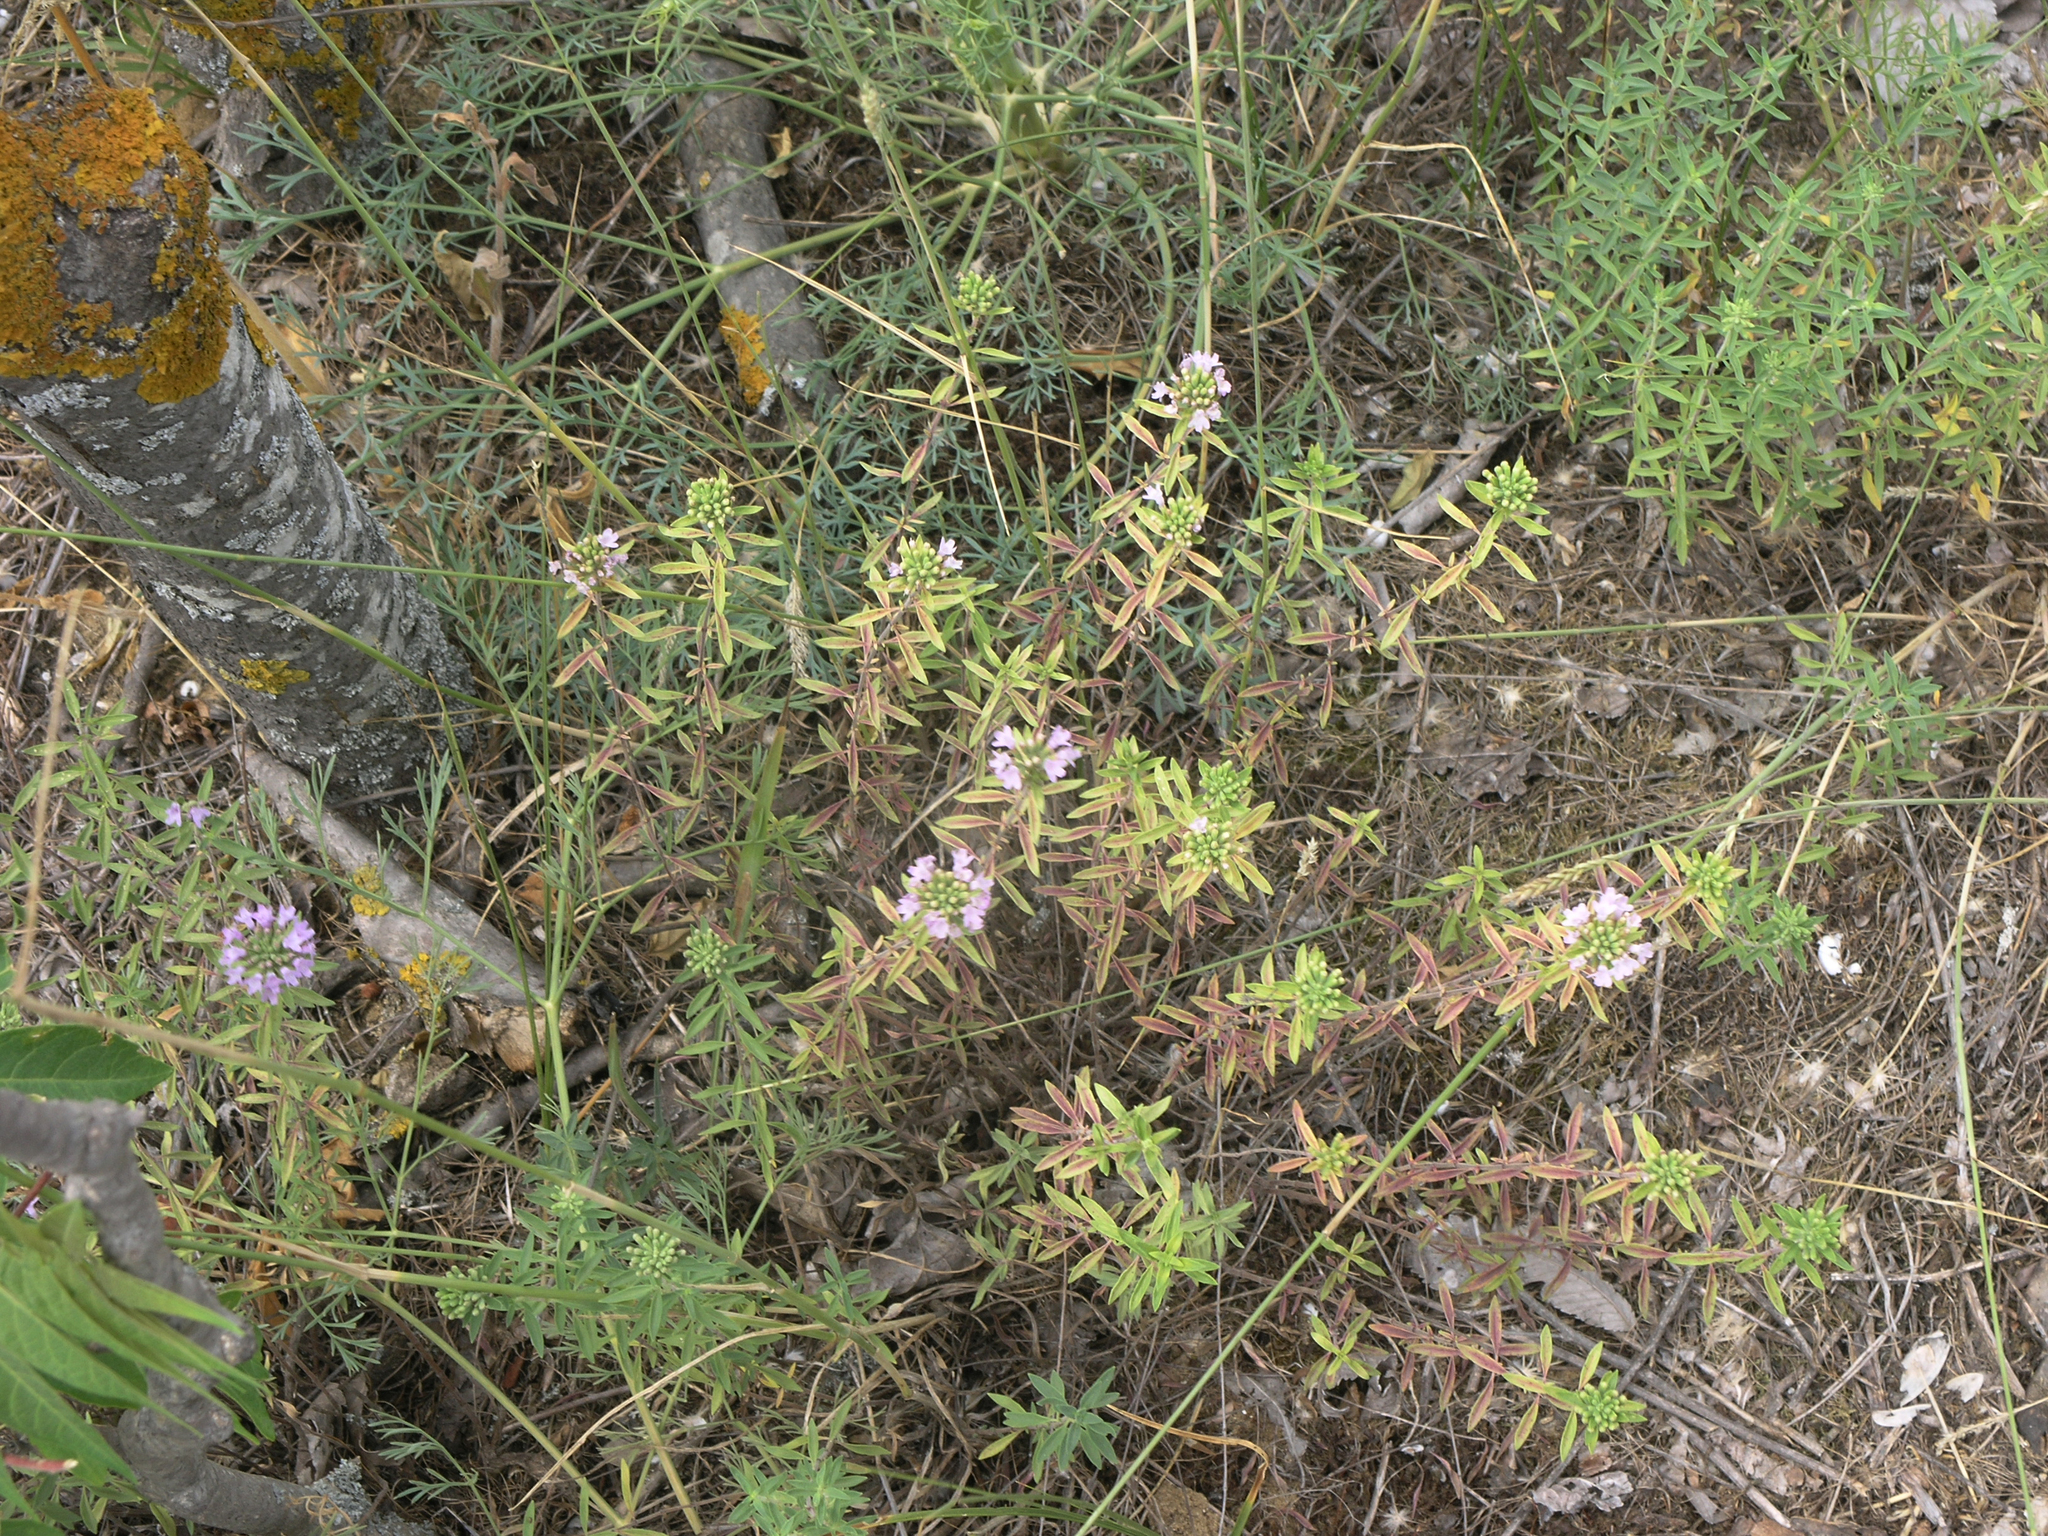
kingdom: Plantae
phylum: Tracheophyta
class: Magnoliopsida
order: Lamiales
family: Lamiaceae
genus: Ziziphora
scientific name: Ziziphora
